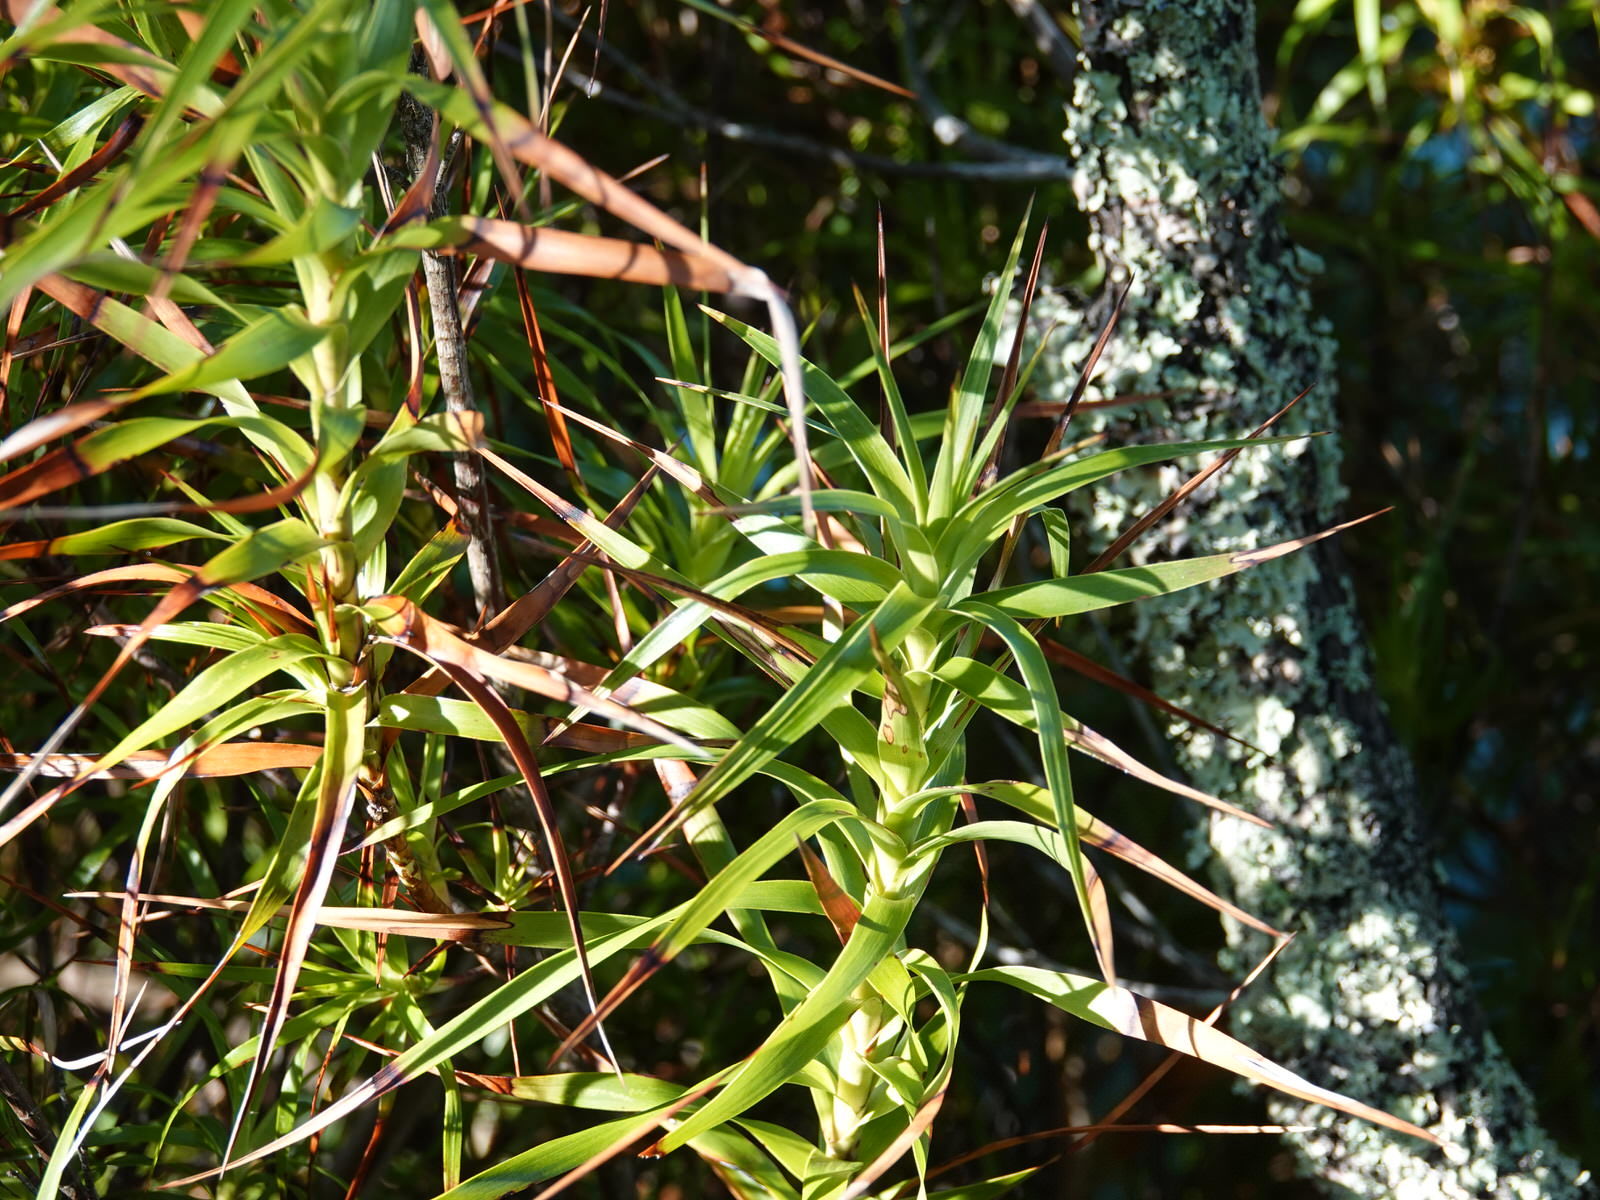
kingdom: Plantae
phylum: Tracheophyta
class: Magnoliopsida
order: Ericales
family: Ericaceae
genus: Dracophyllum
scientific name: Dracophyllum sinclairii
